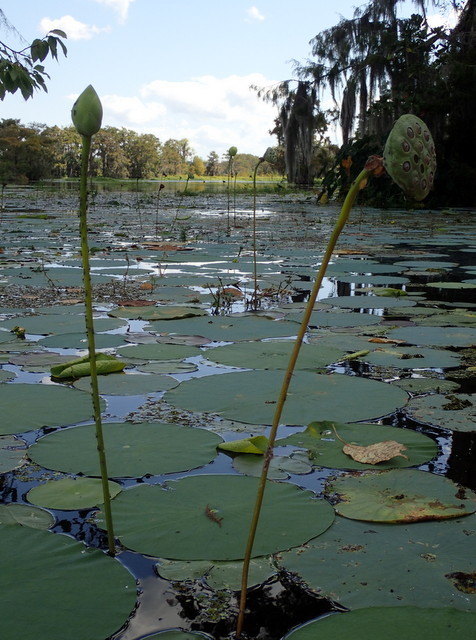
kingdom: Plantae
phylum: Tracheophyta
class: Magnoliopsida
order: Proteales
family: Nelumbonaceae
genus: Nelumbo
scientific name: Nelumbo lutea
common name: American lotus
